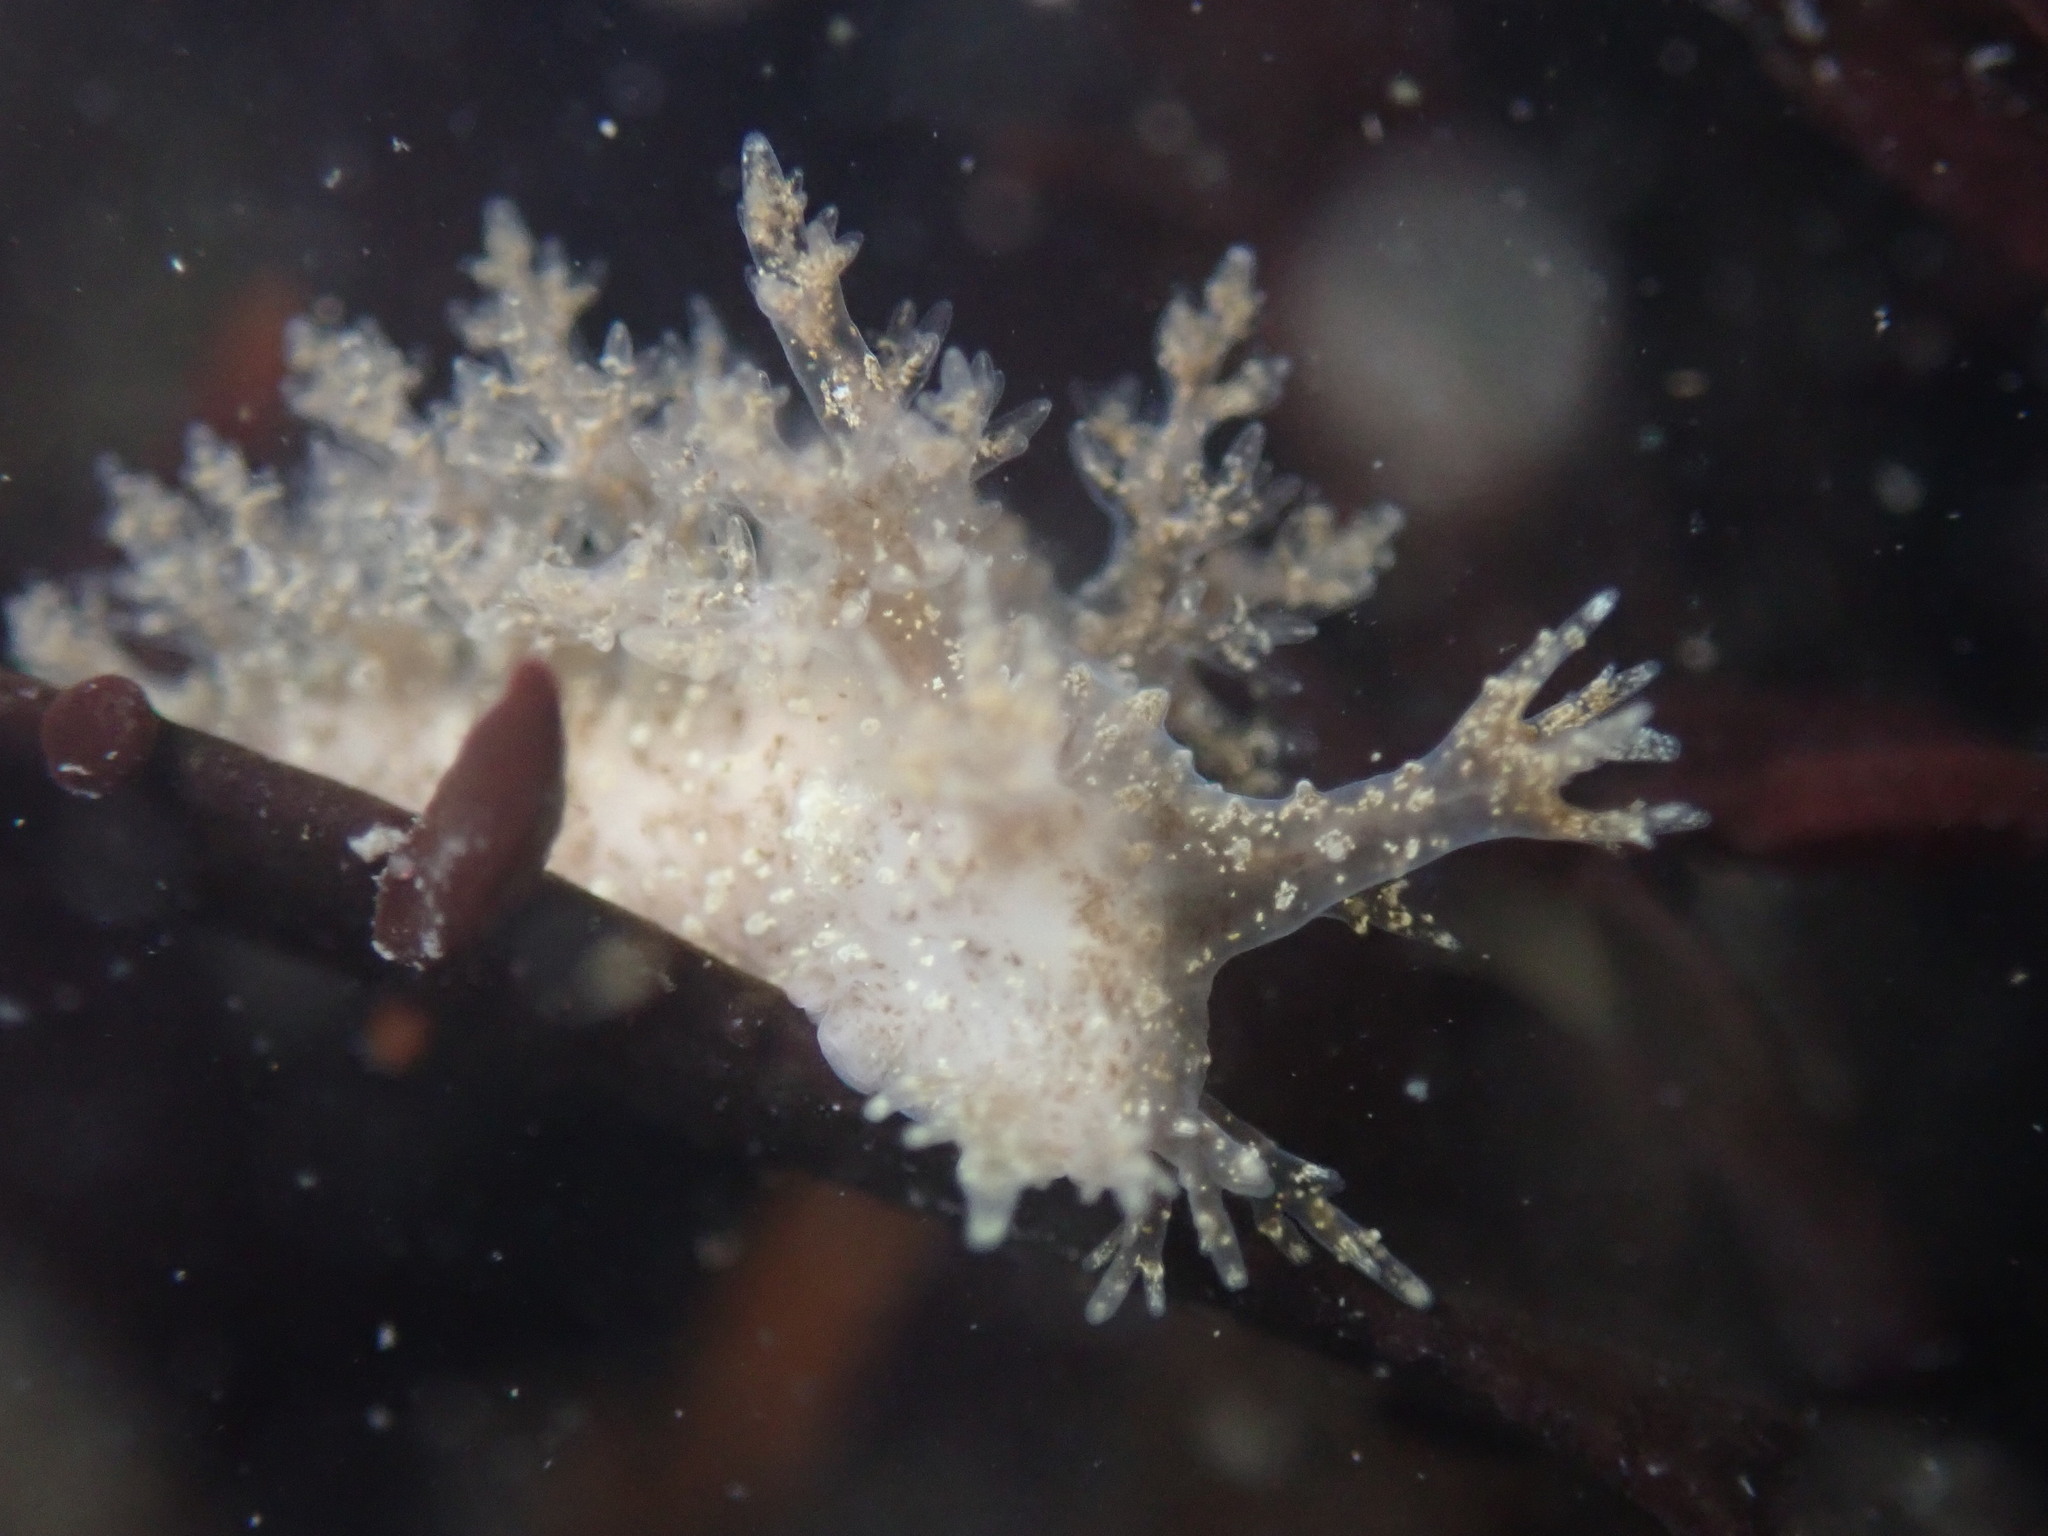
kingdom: Animalia
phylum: Mollusca
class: Gastropoda
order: Nudibranchia
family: Dendronotidae
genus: Dendronotus
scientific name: Dendronotus venustus
